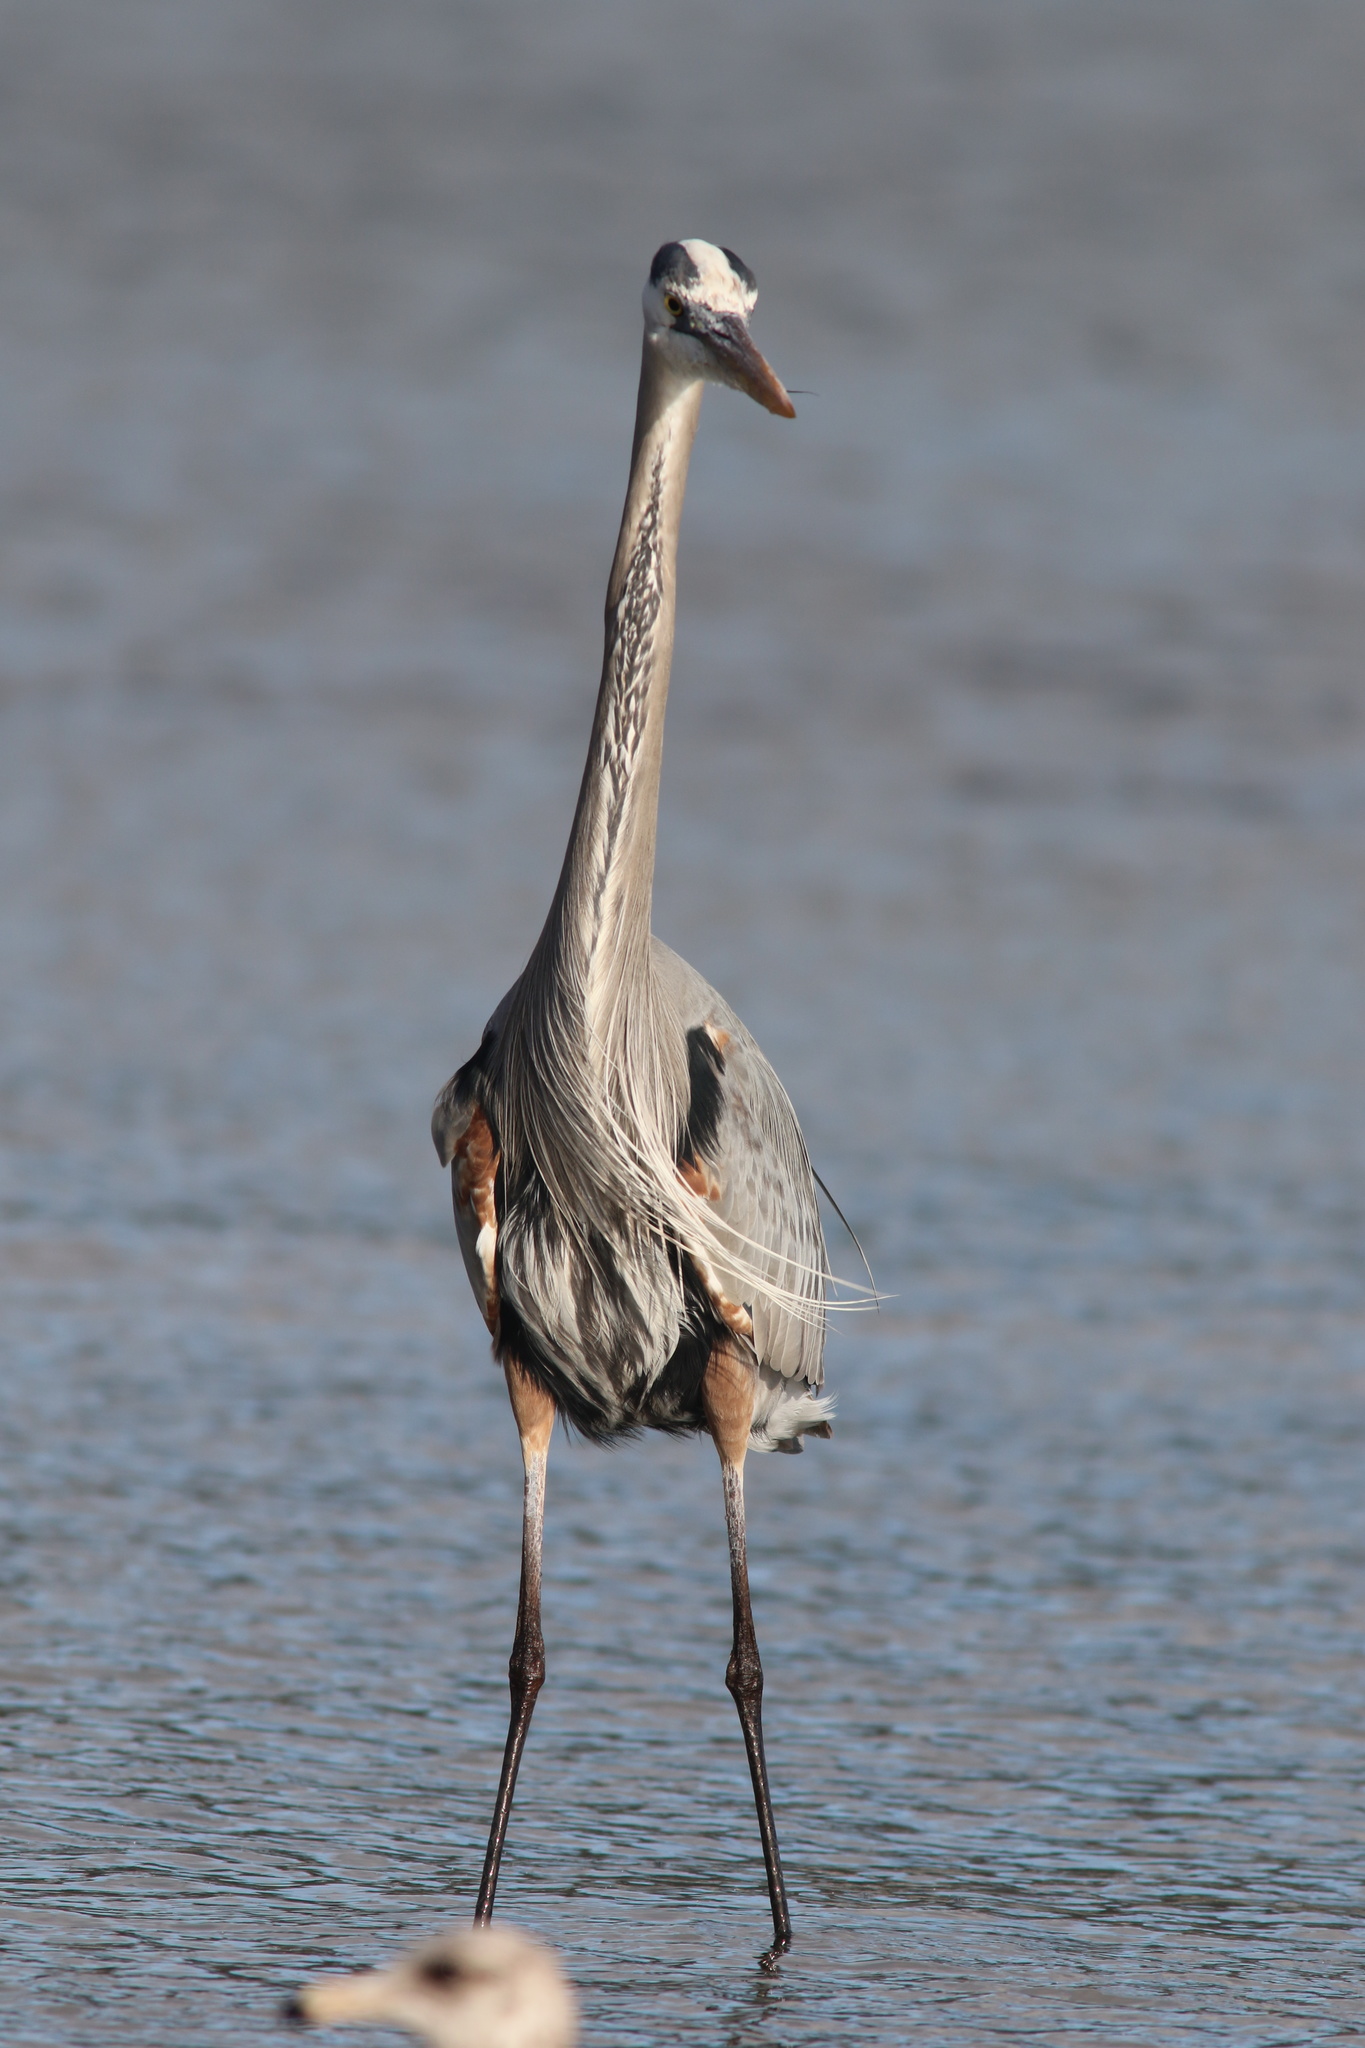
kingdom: Animalia
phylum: Chordata
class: Aves
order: Pelecaniformes
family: Ardeidae
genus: Ardea
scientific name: Ardea herodias
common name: Great blue heron
